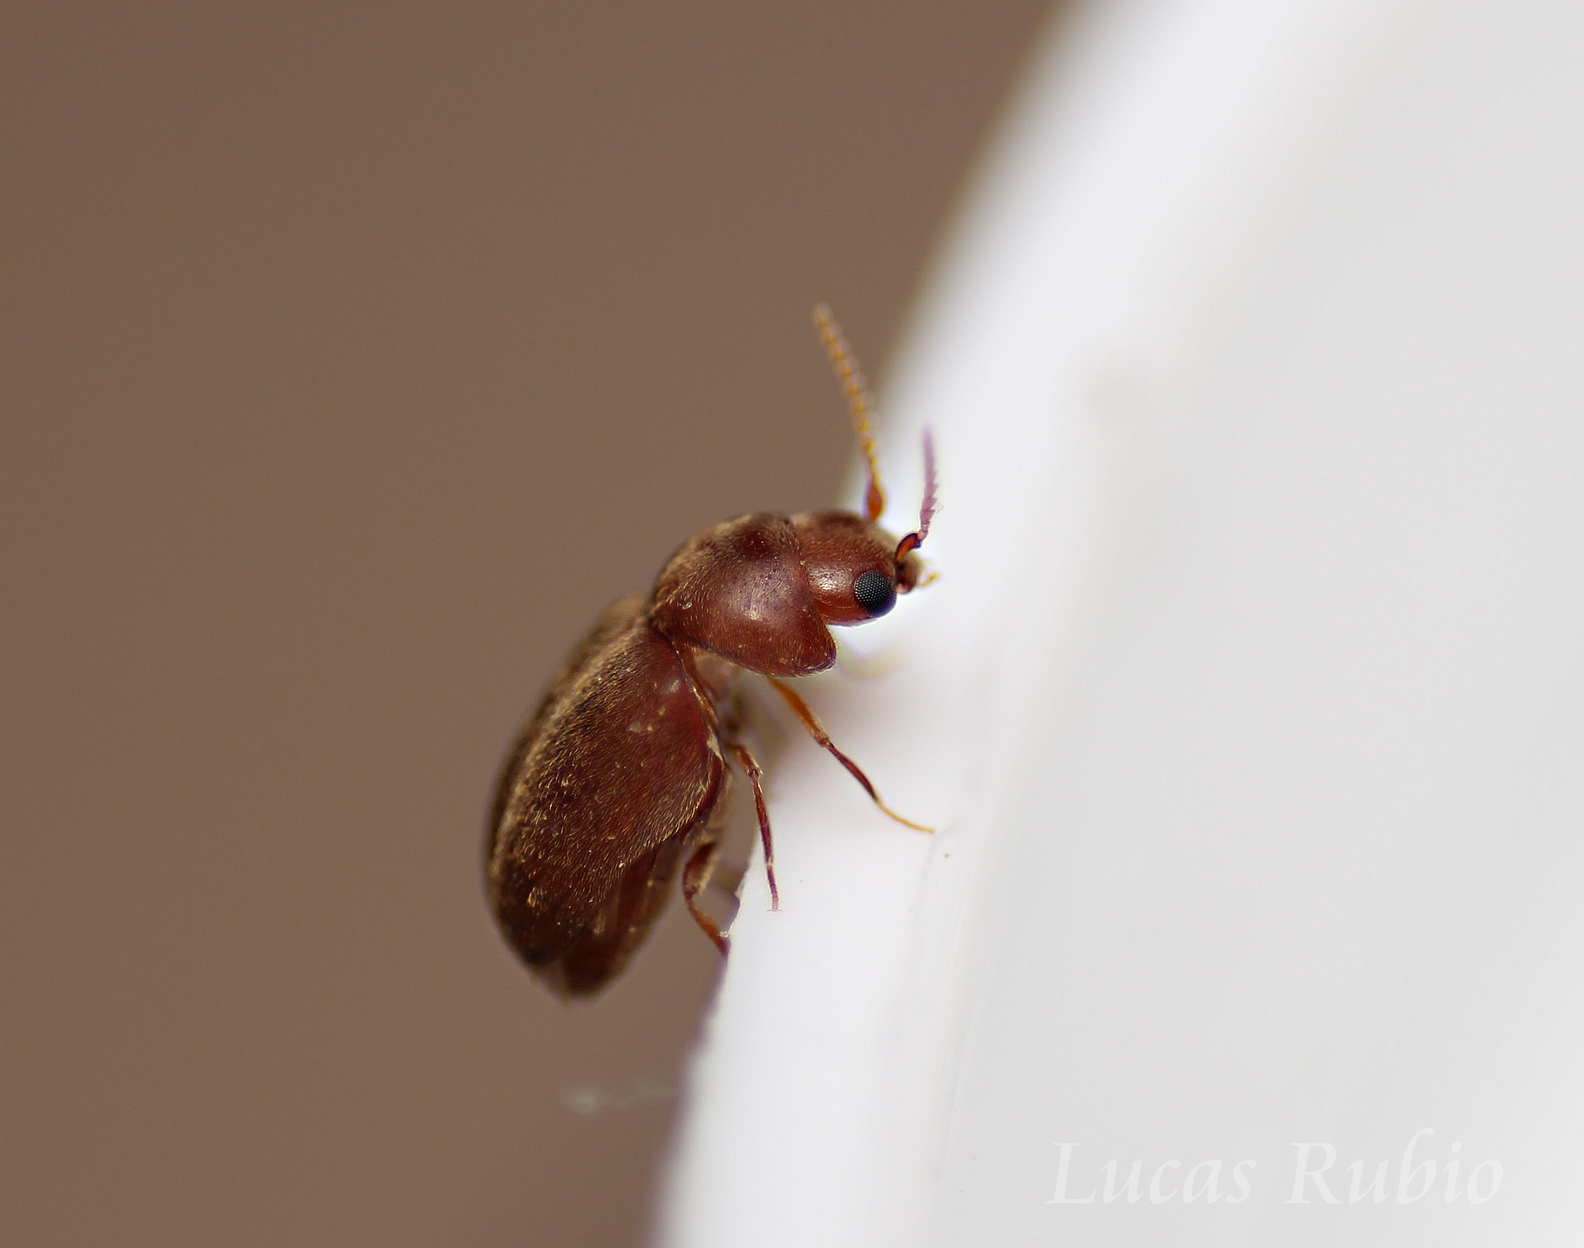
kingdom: Animalia
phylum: Arthropoda
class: Insecta
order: Coleoptera
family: Anobiidae
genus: Lasioderma
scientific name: Lasioderma serricorne
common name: Cigarette beetle
